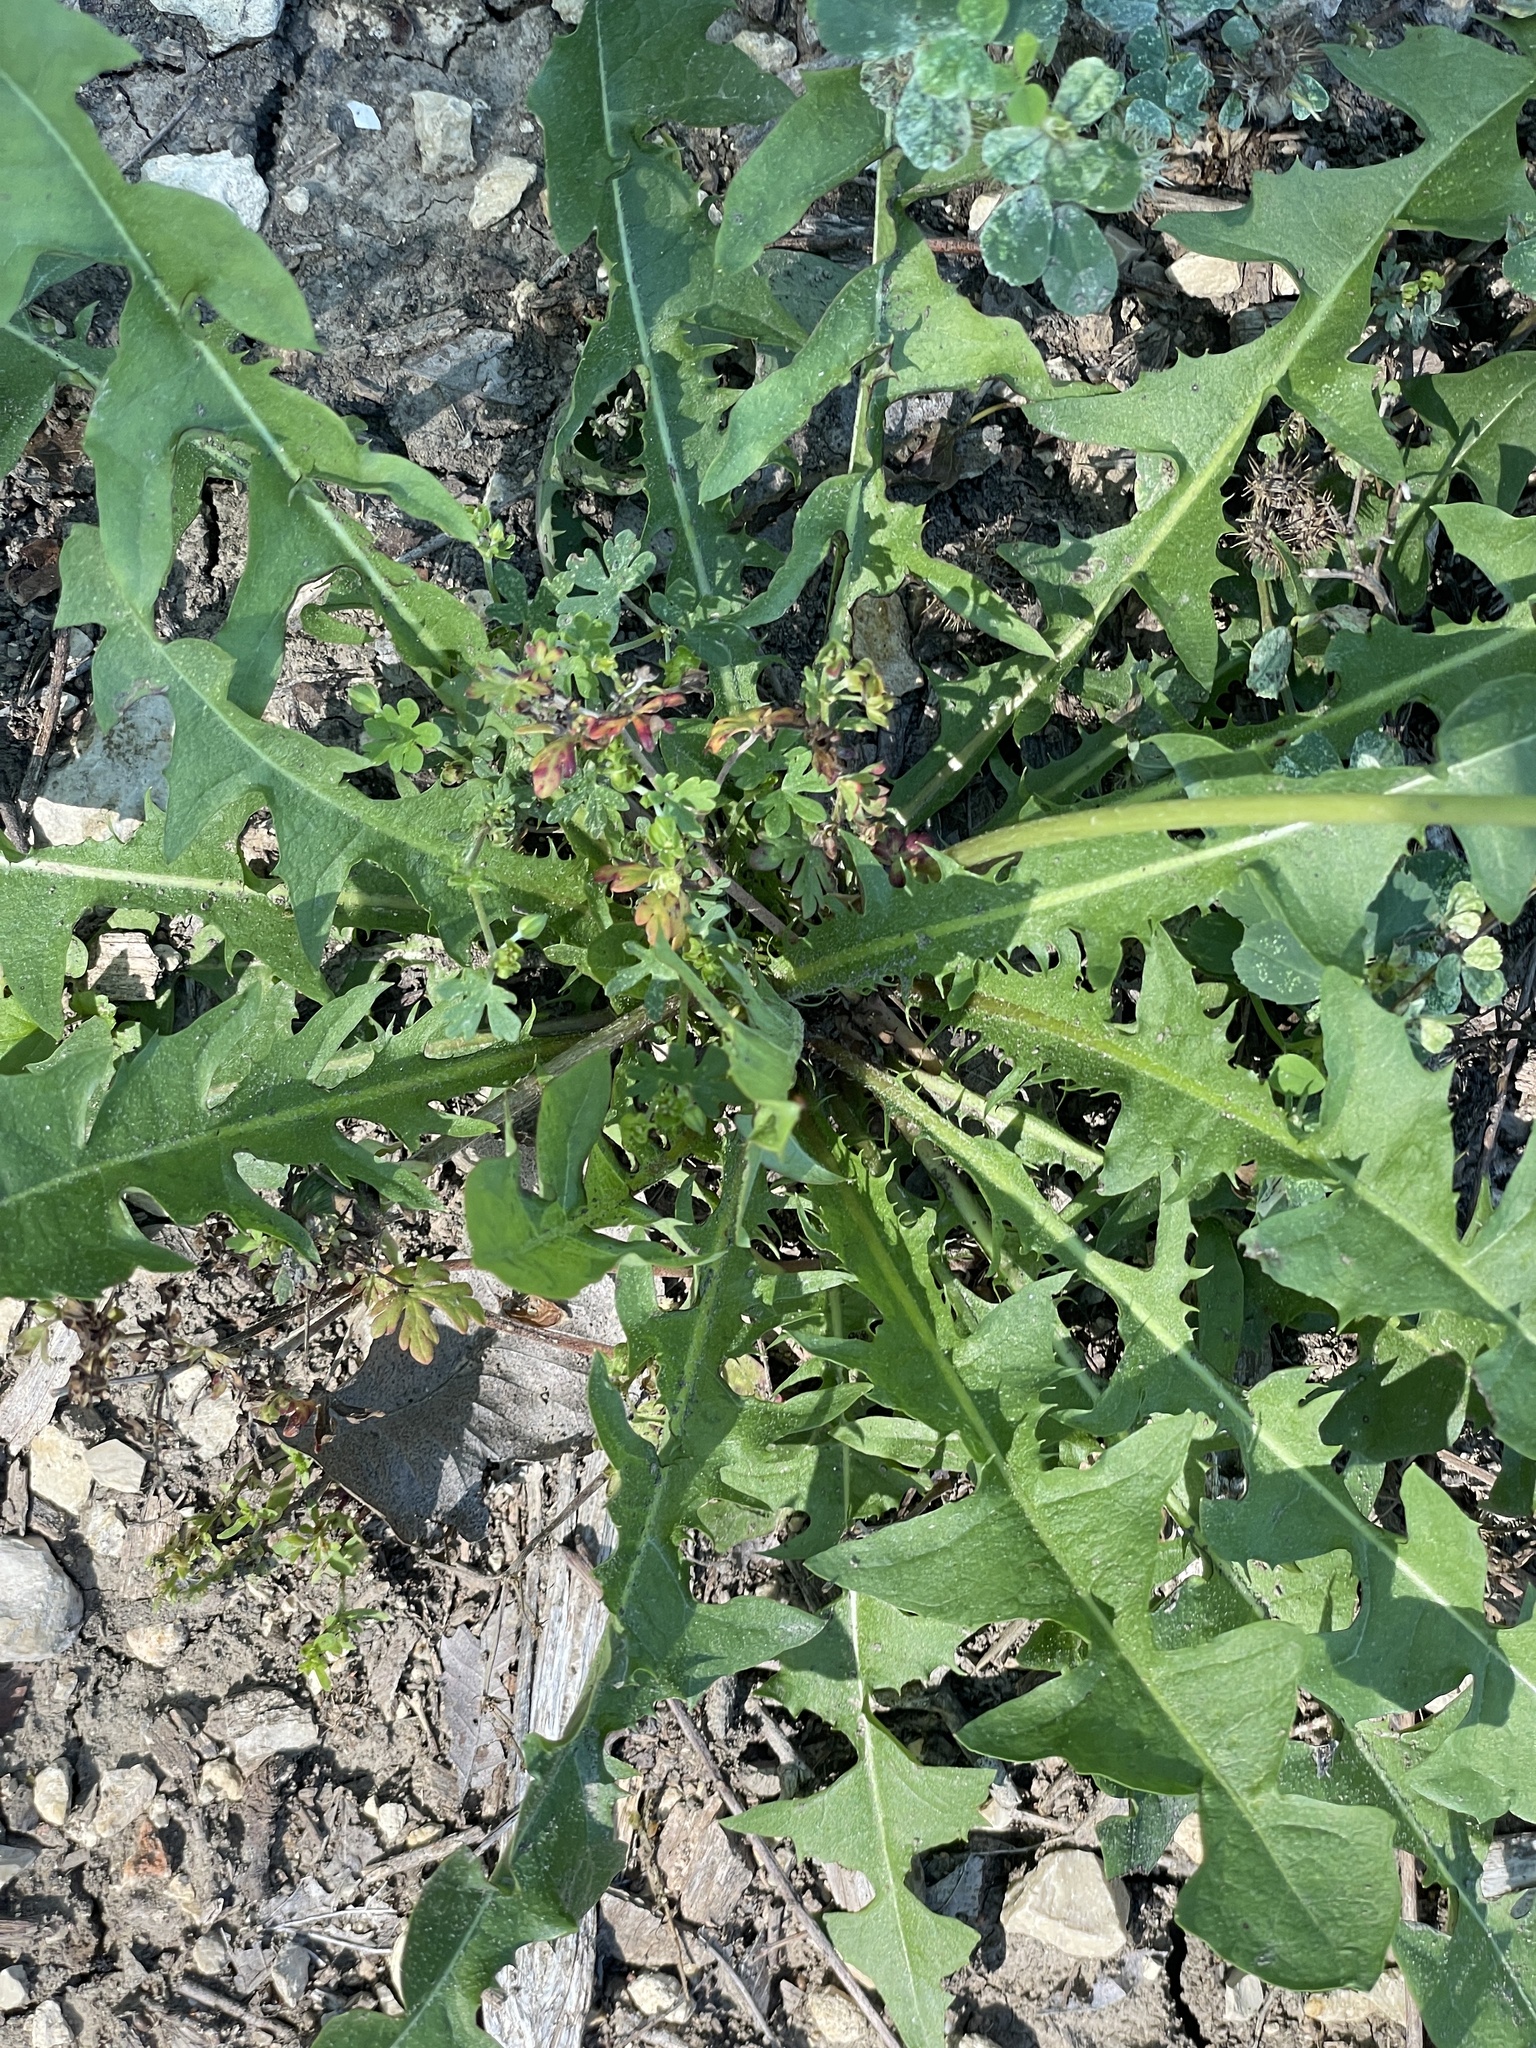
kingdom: Plantae
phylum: Tracheophyta
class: Magnoliopsida
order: Asterales
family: Asteraceae
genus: Taraxacum
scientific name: Taraxacum officinale
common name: Common dandelion
